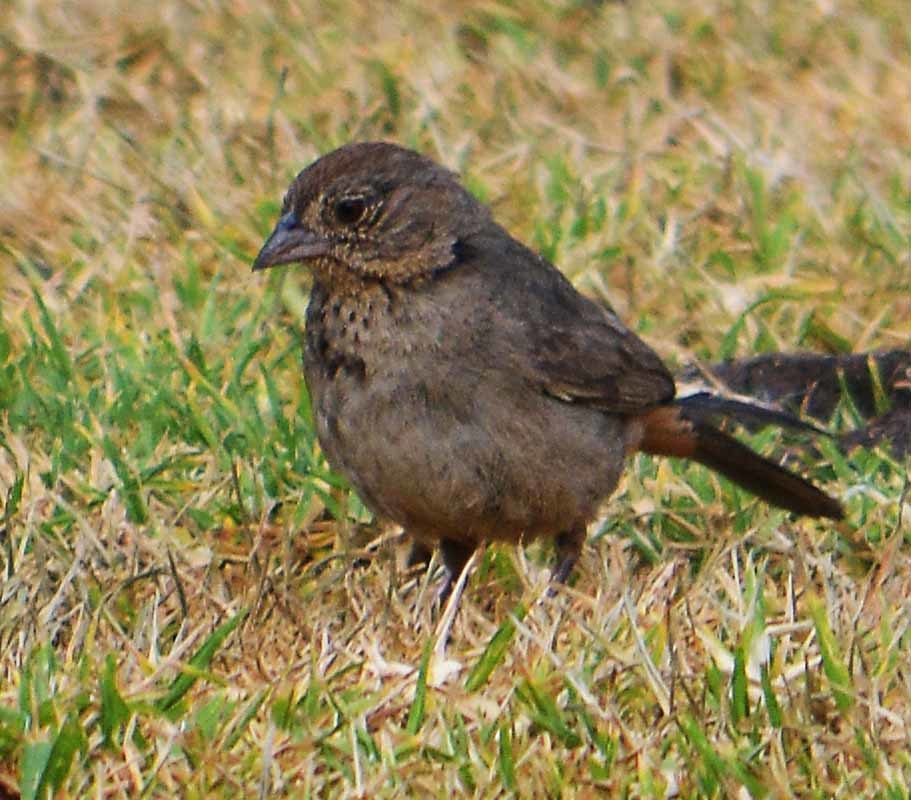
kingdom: Animalia
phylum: Chordata
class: Aves
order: Passeriformes
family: Passerellidae
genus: Melozone
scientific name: Melozone fusca
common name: Canyon towhee
